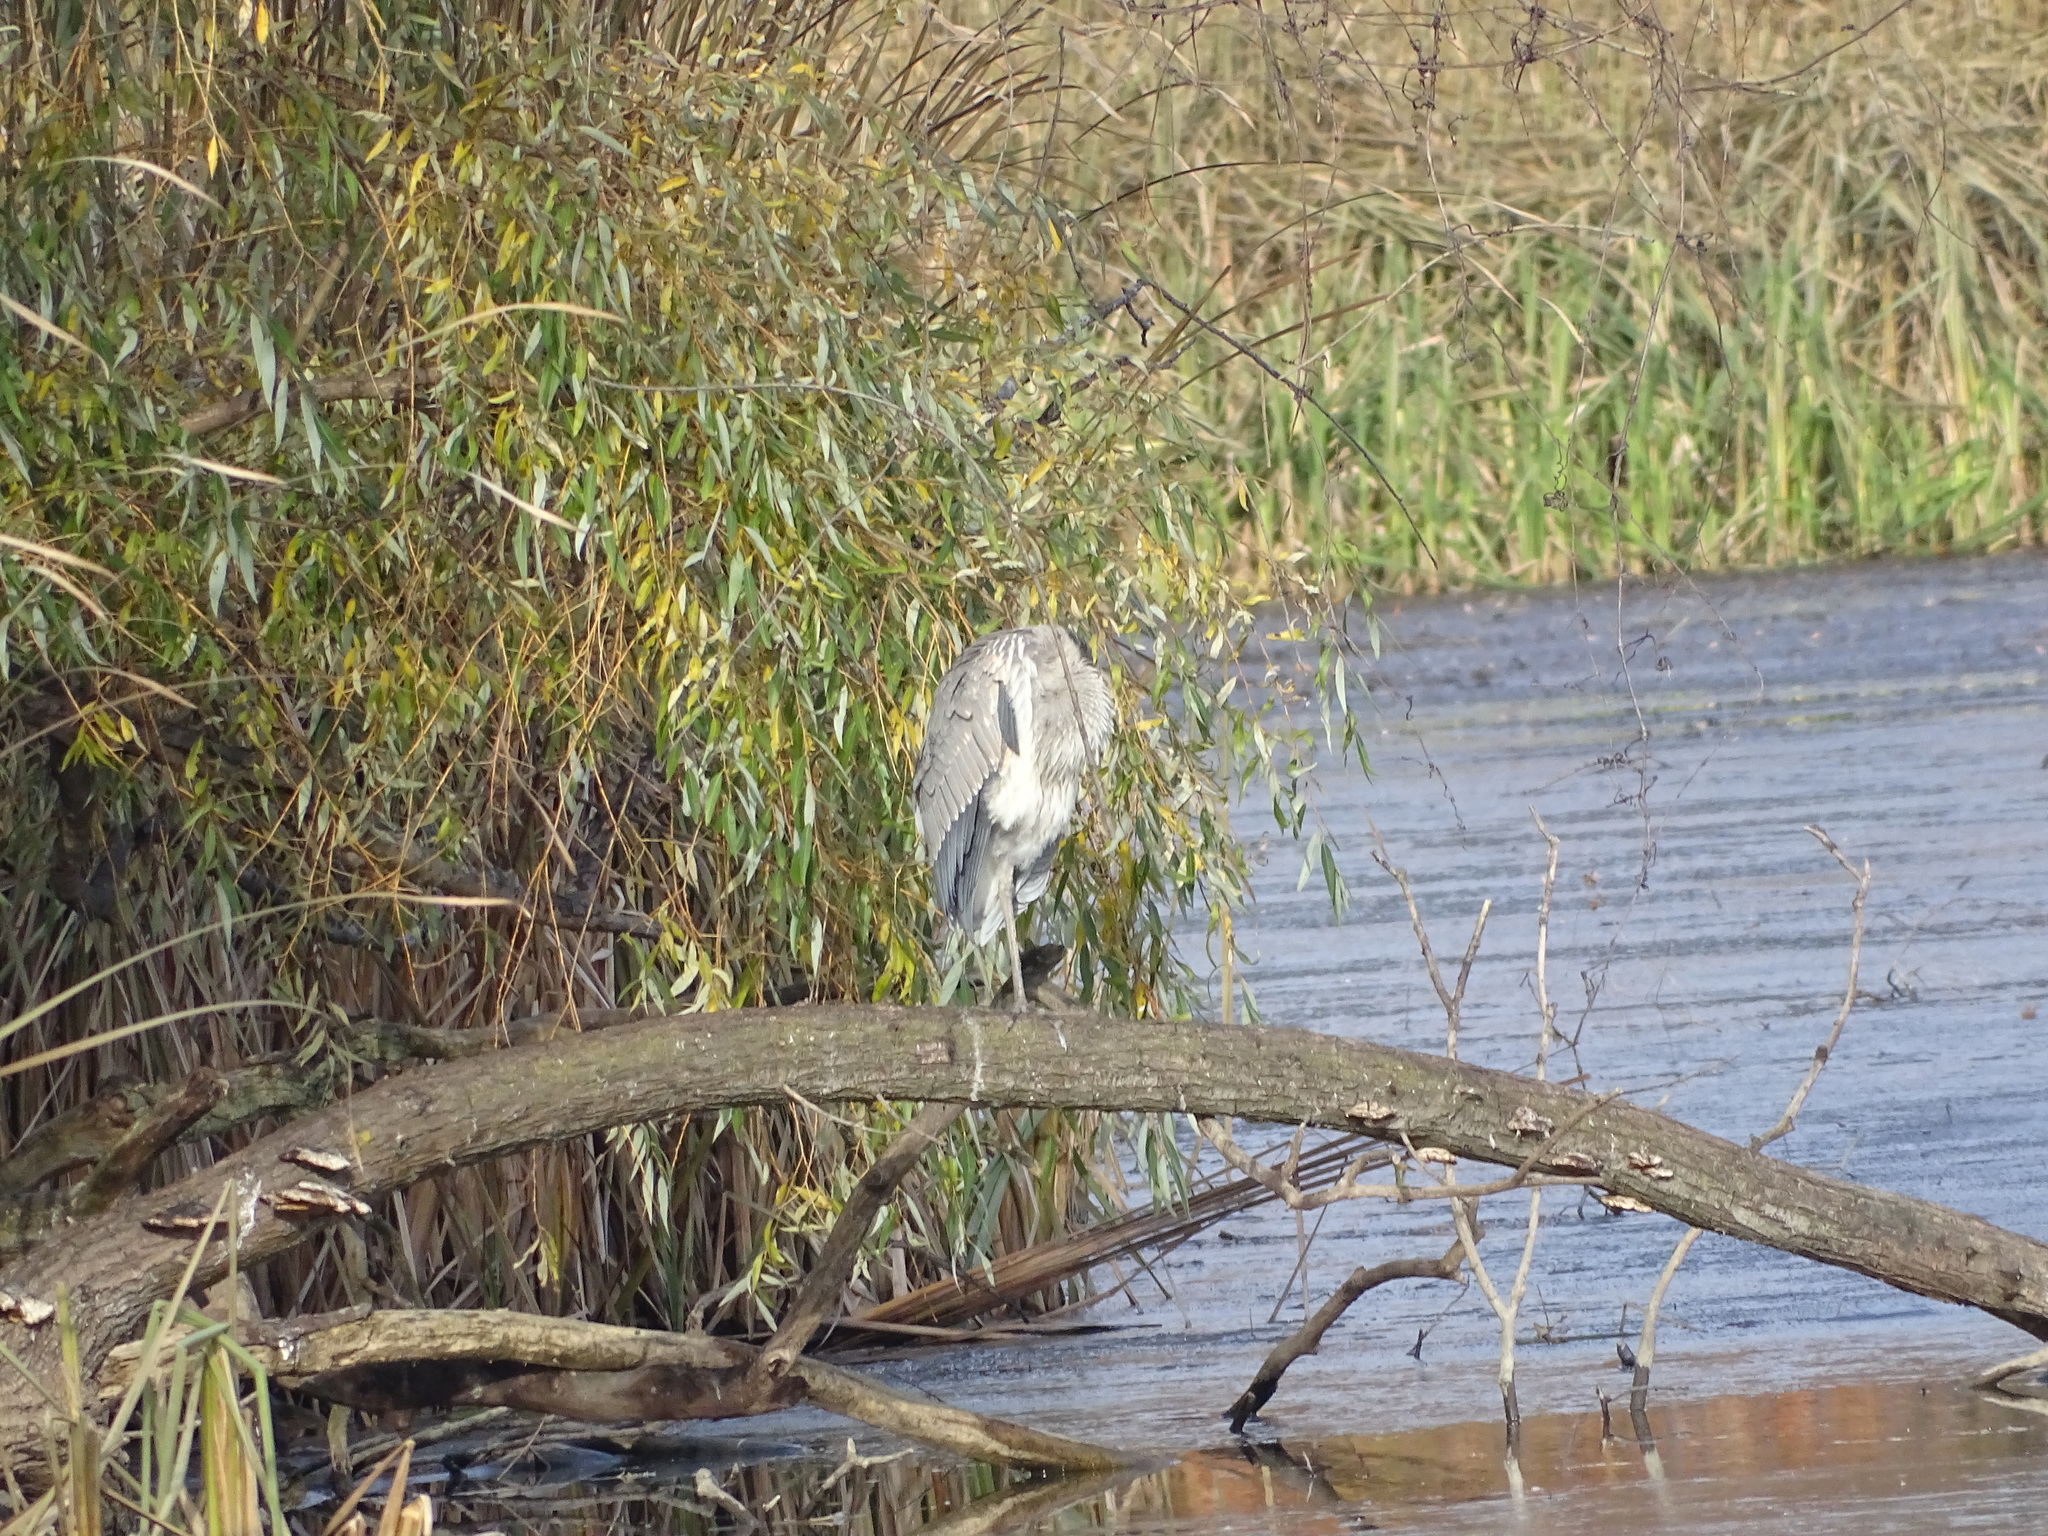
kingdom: Animalia
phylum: Chordata
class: Aves
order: Pelecaniformes
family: Ardeidae
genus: Ardea
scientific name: Ardea herodias
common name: Great blue heron
